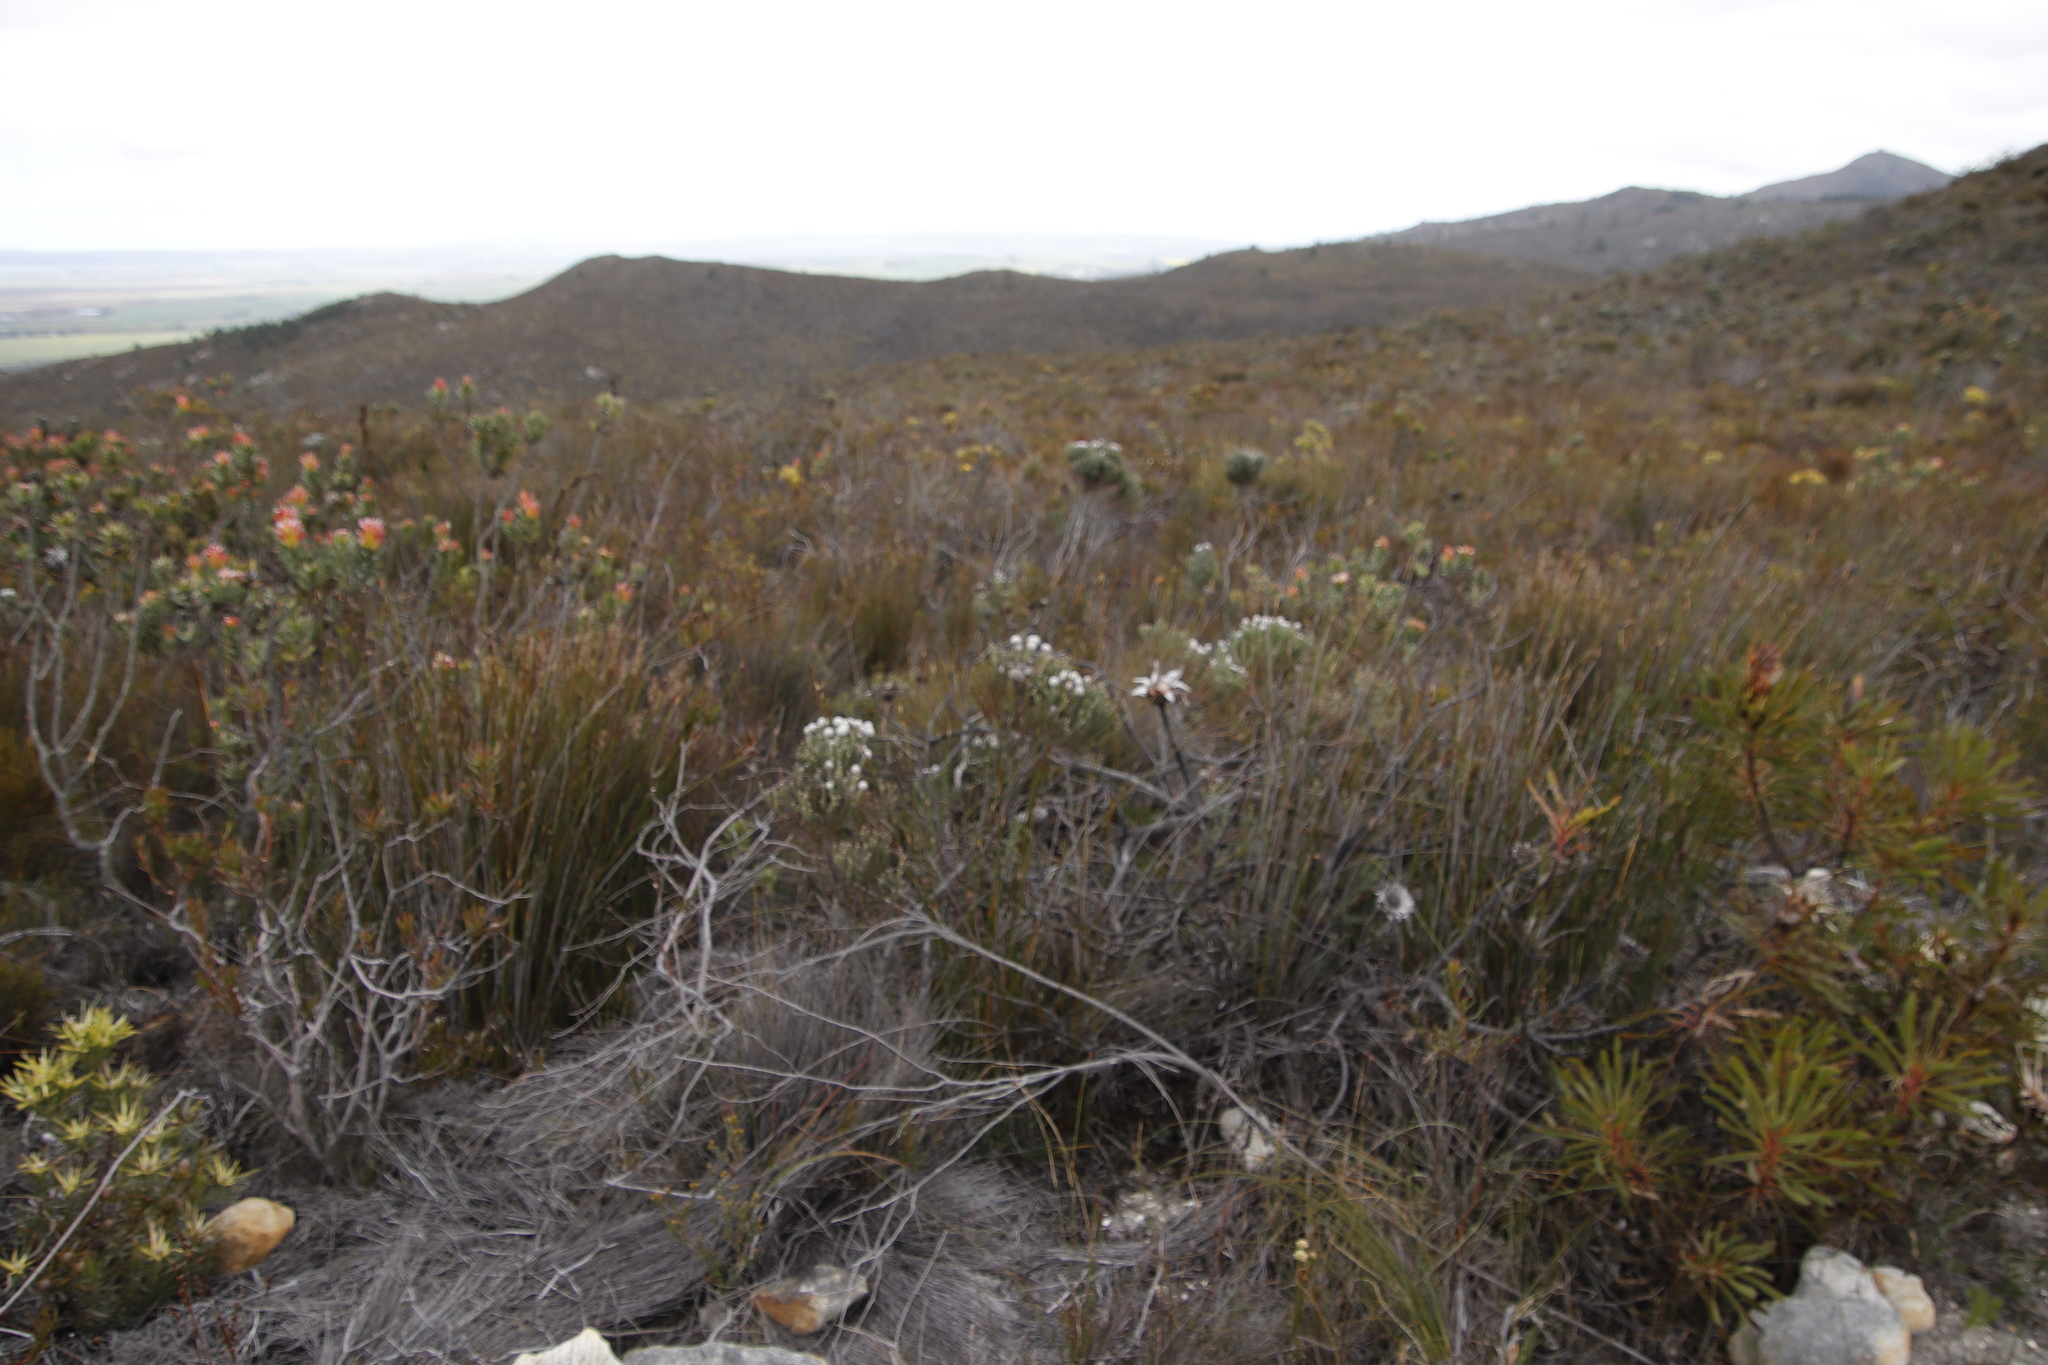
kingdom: Plantae
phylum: Tracheophyta
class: Magnoliopsida
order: Bruniales
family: Bruniaceae
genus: Brunia
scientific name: Brunia laevis
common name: Silver brunia
